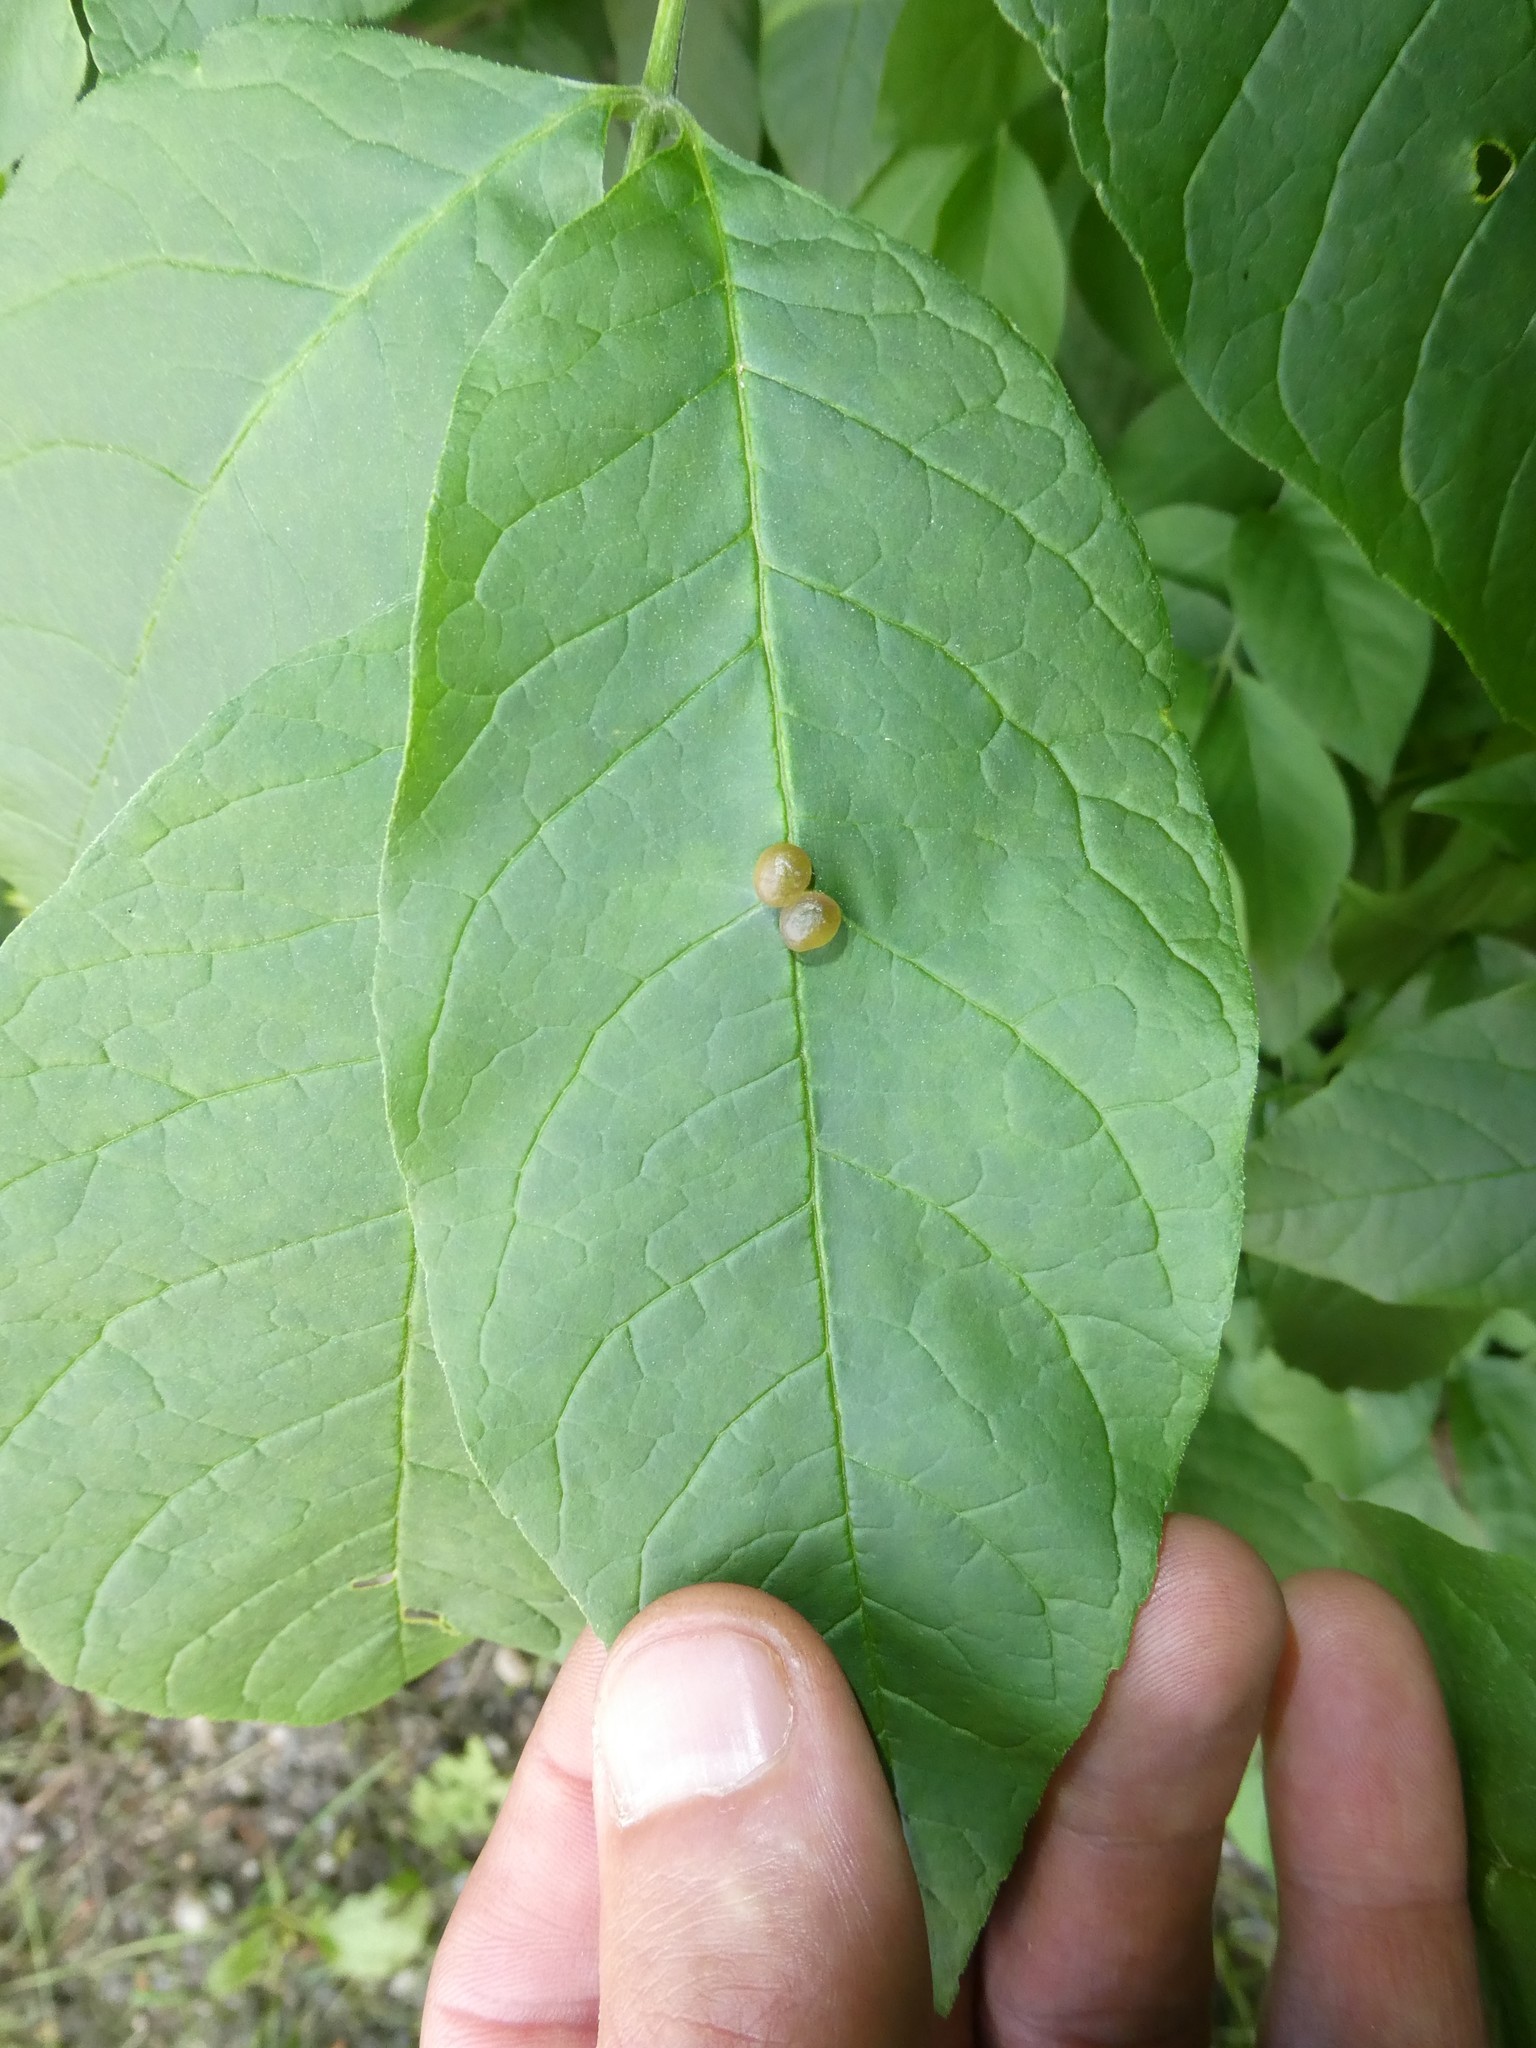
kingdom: Animalia
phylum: Arthropoda
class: Insecta
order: Diptera
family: Cecidomyiidae
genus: Dasineura
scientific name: Dasineura pellex
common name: Ash bullet gall midge
